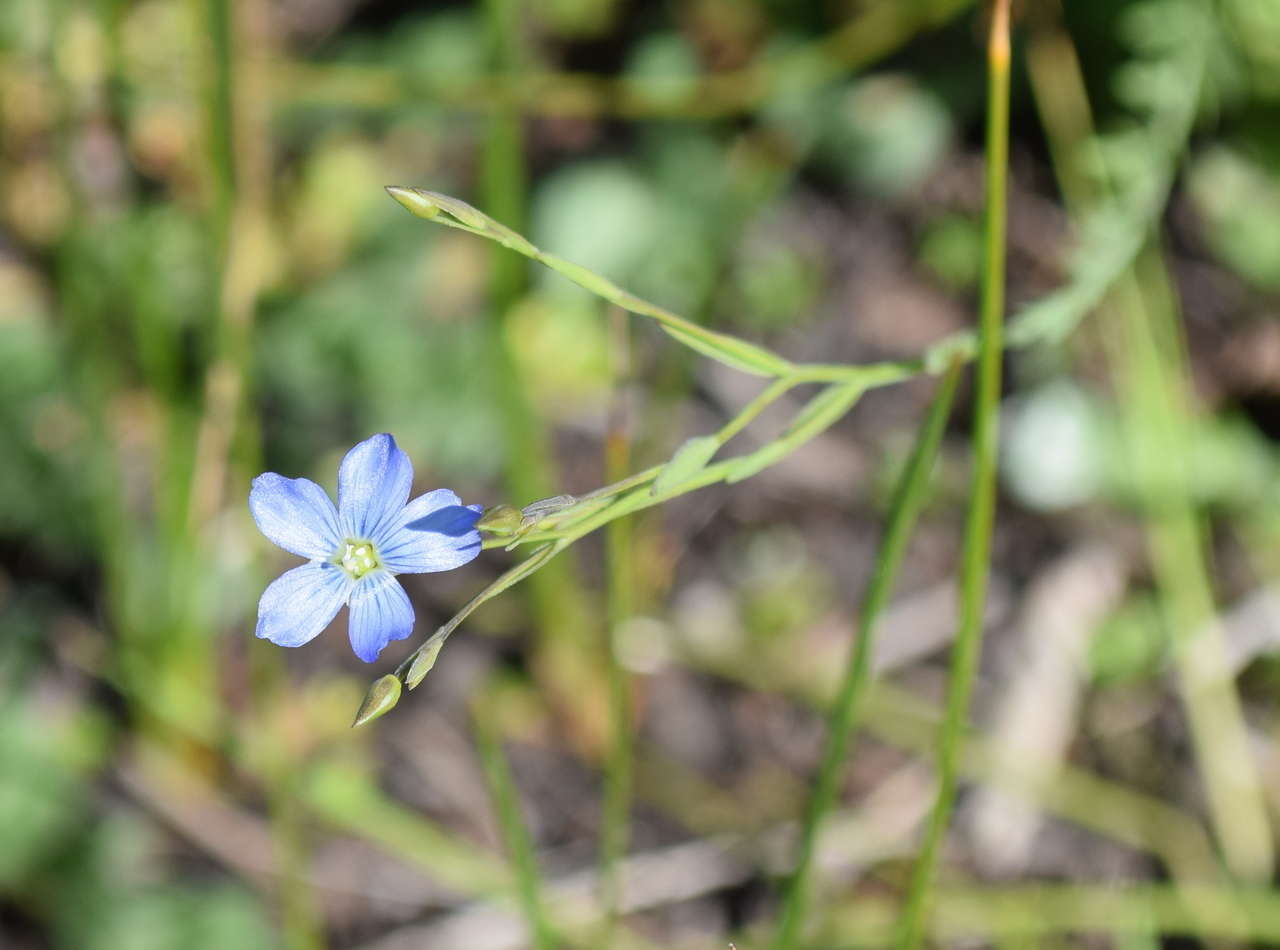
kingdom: Plantae
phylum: Tracheophyta
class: Magnoliopsida
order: Malpighiales
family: Linaceae
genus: Linum
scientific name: Linum marginale
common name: Wild flax
